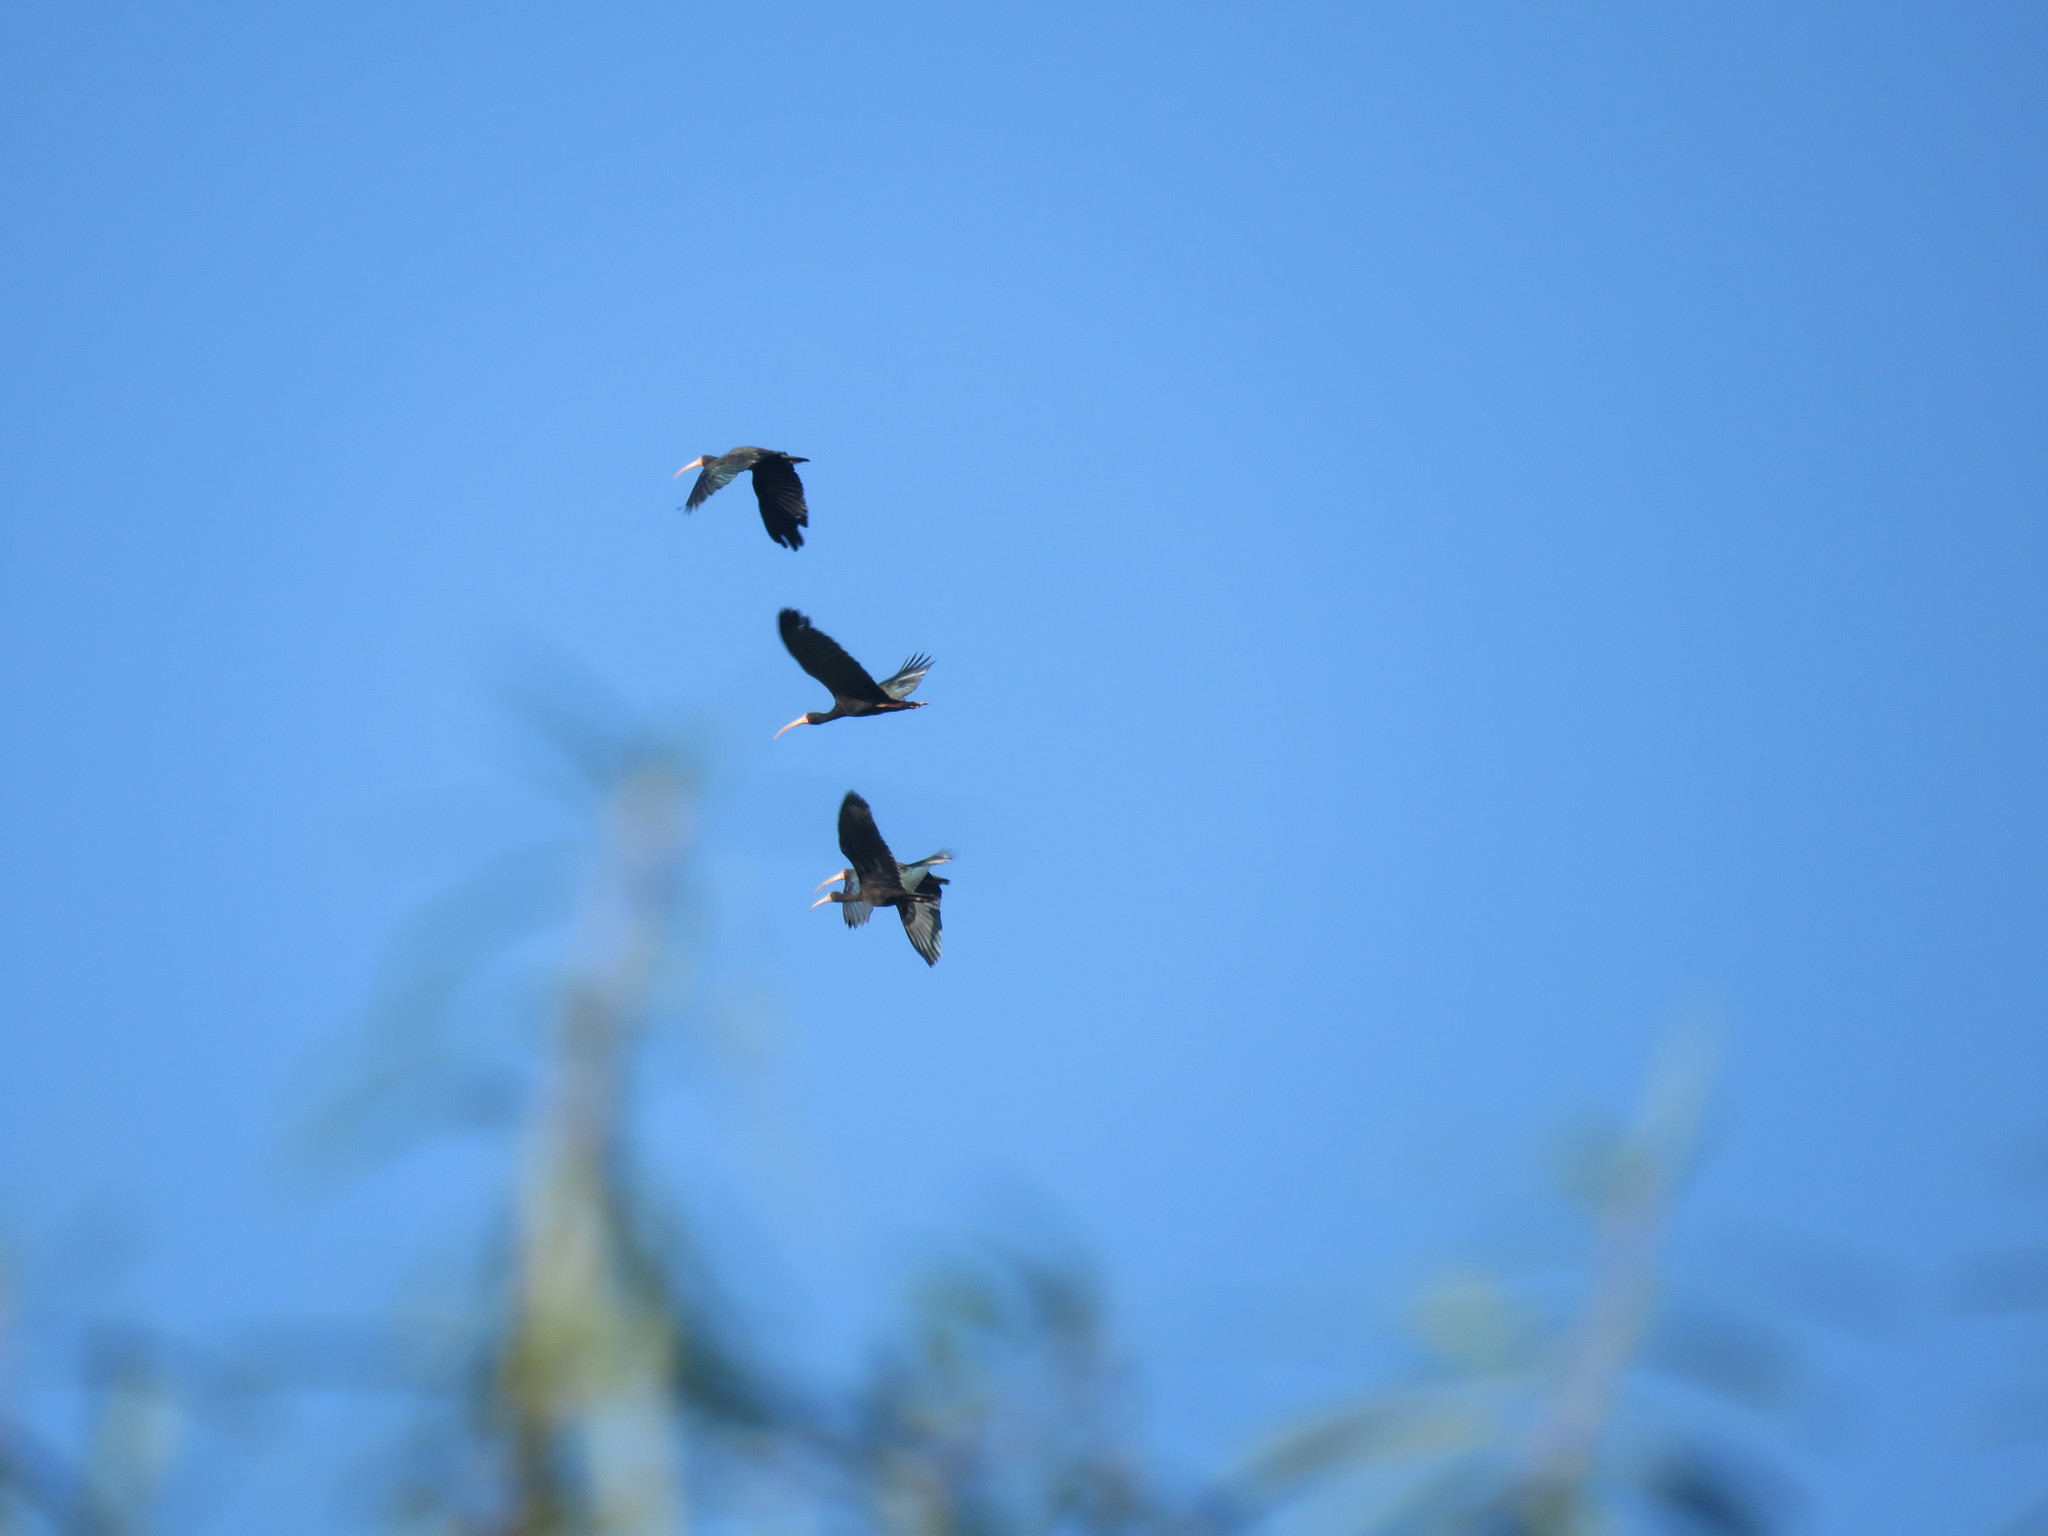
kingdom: Animalia
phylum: Chordata
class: Aves
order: Pelecaniformes
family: Threskiornithidae
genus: Phimosus
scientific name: Phimosus infuscatus
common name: Bare-faced ibis
